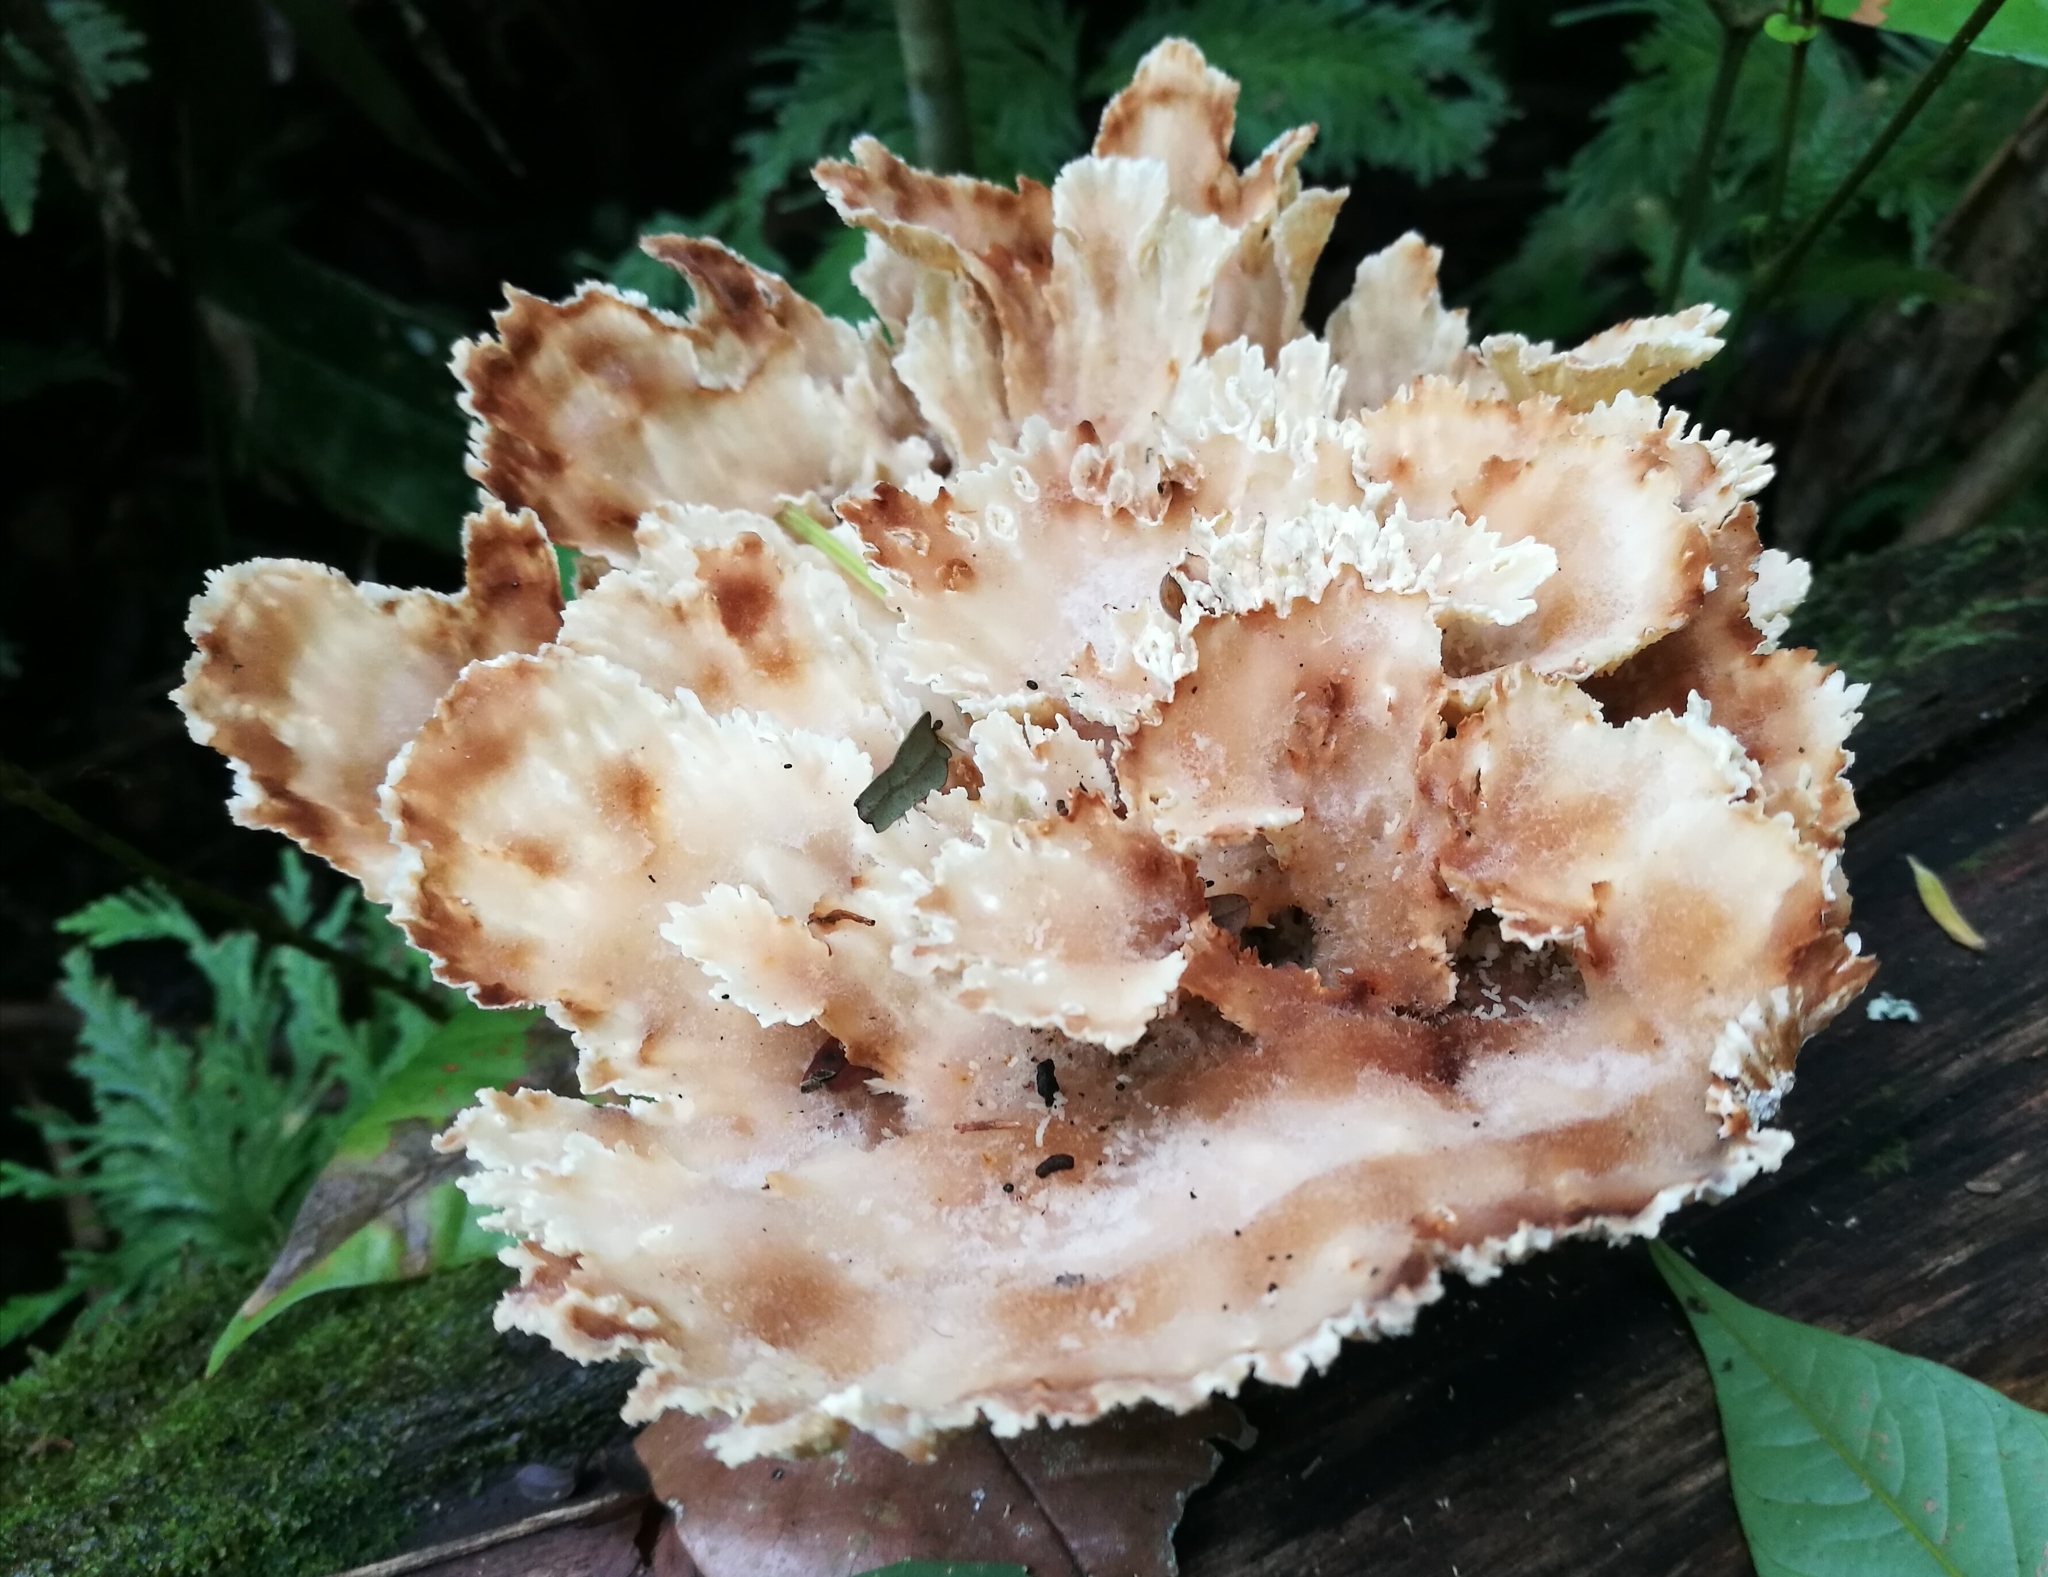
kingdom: Fungi
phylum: Basidiomycota
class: Agaricomycetes
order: Polyporales
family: Panaceae
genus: Cymatoderma
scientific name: Cymatoderma dendriticum
